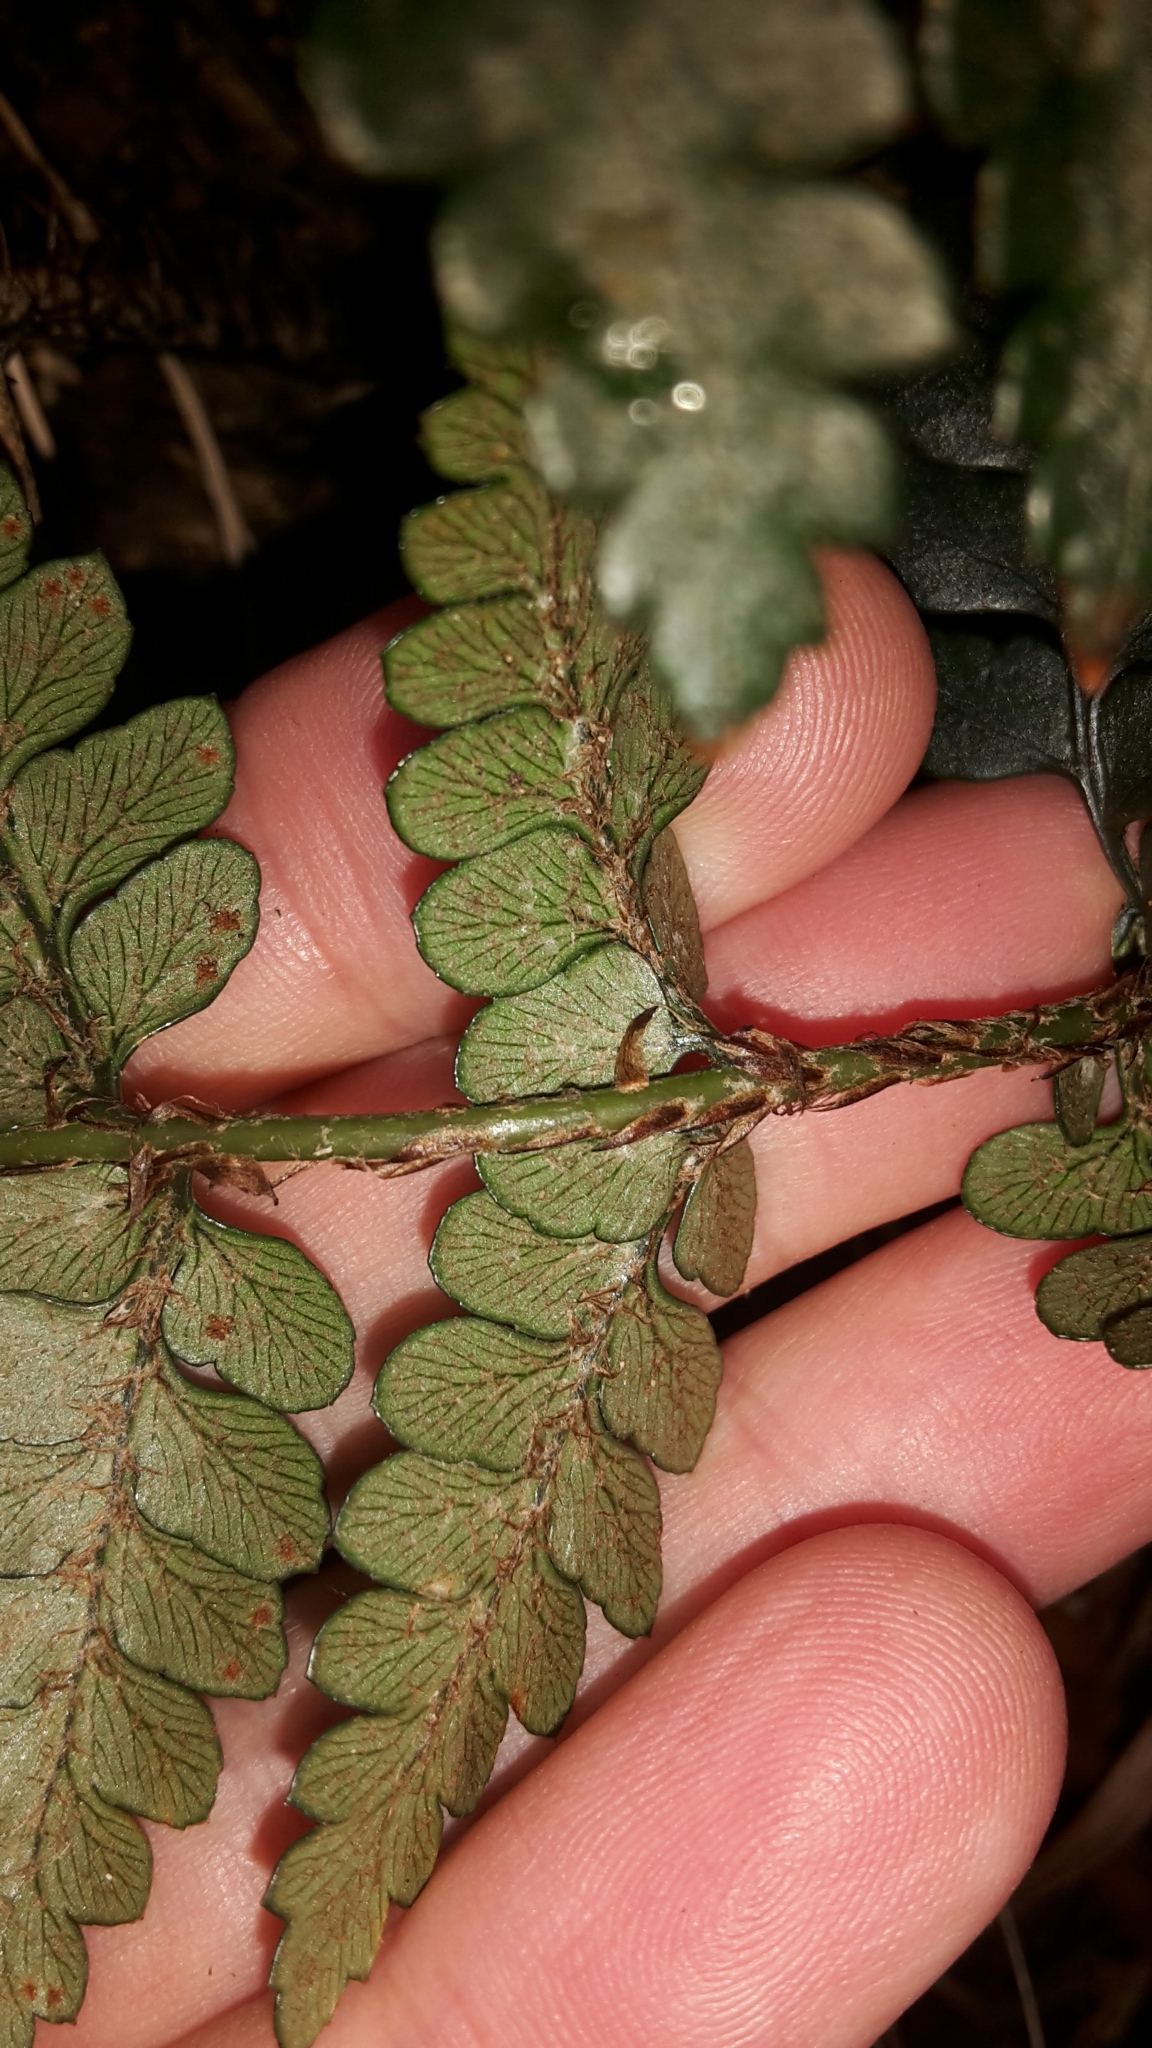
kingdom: Plantae
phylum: Tracheophyta
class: Polypodiopsida
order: Polypodiales
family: Dryopteridaceae
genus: Polystichum
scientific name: Polystichum oculatum
